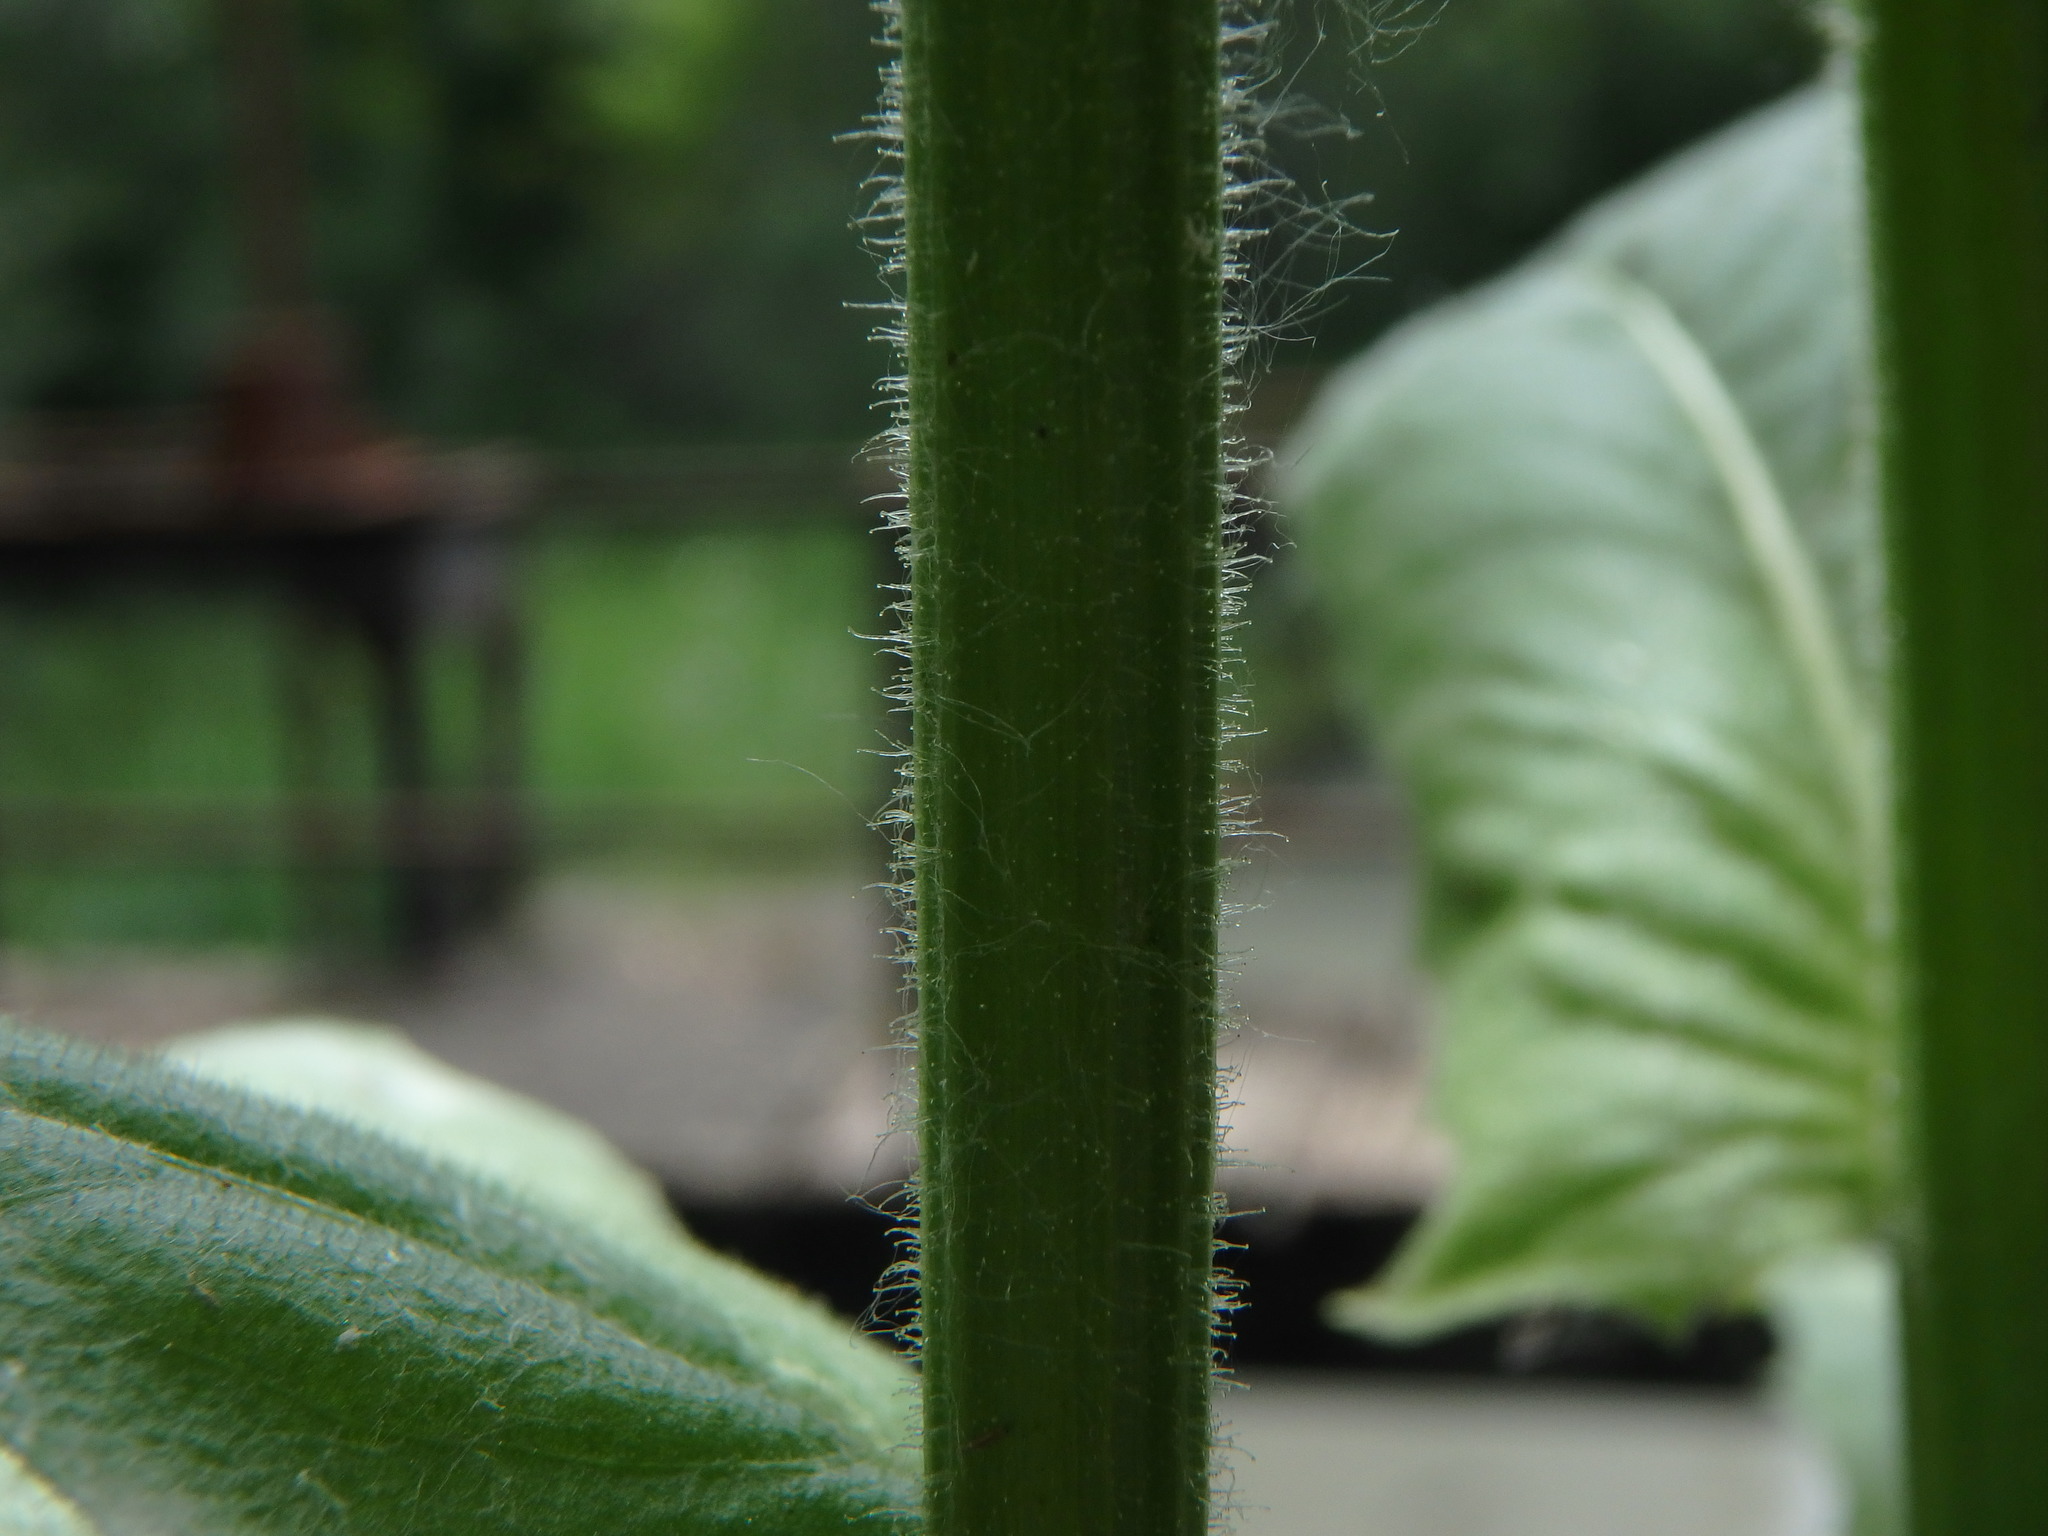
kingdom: Plantae
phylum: Tracheophyta
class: Magnoliopsida
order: Asterales
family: Asteraceae
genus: Crepis
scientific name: Crepis pulchra
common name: Hawk's-beard
